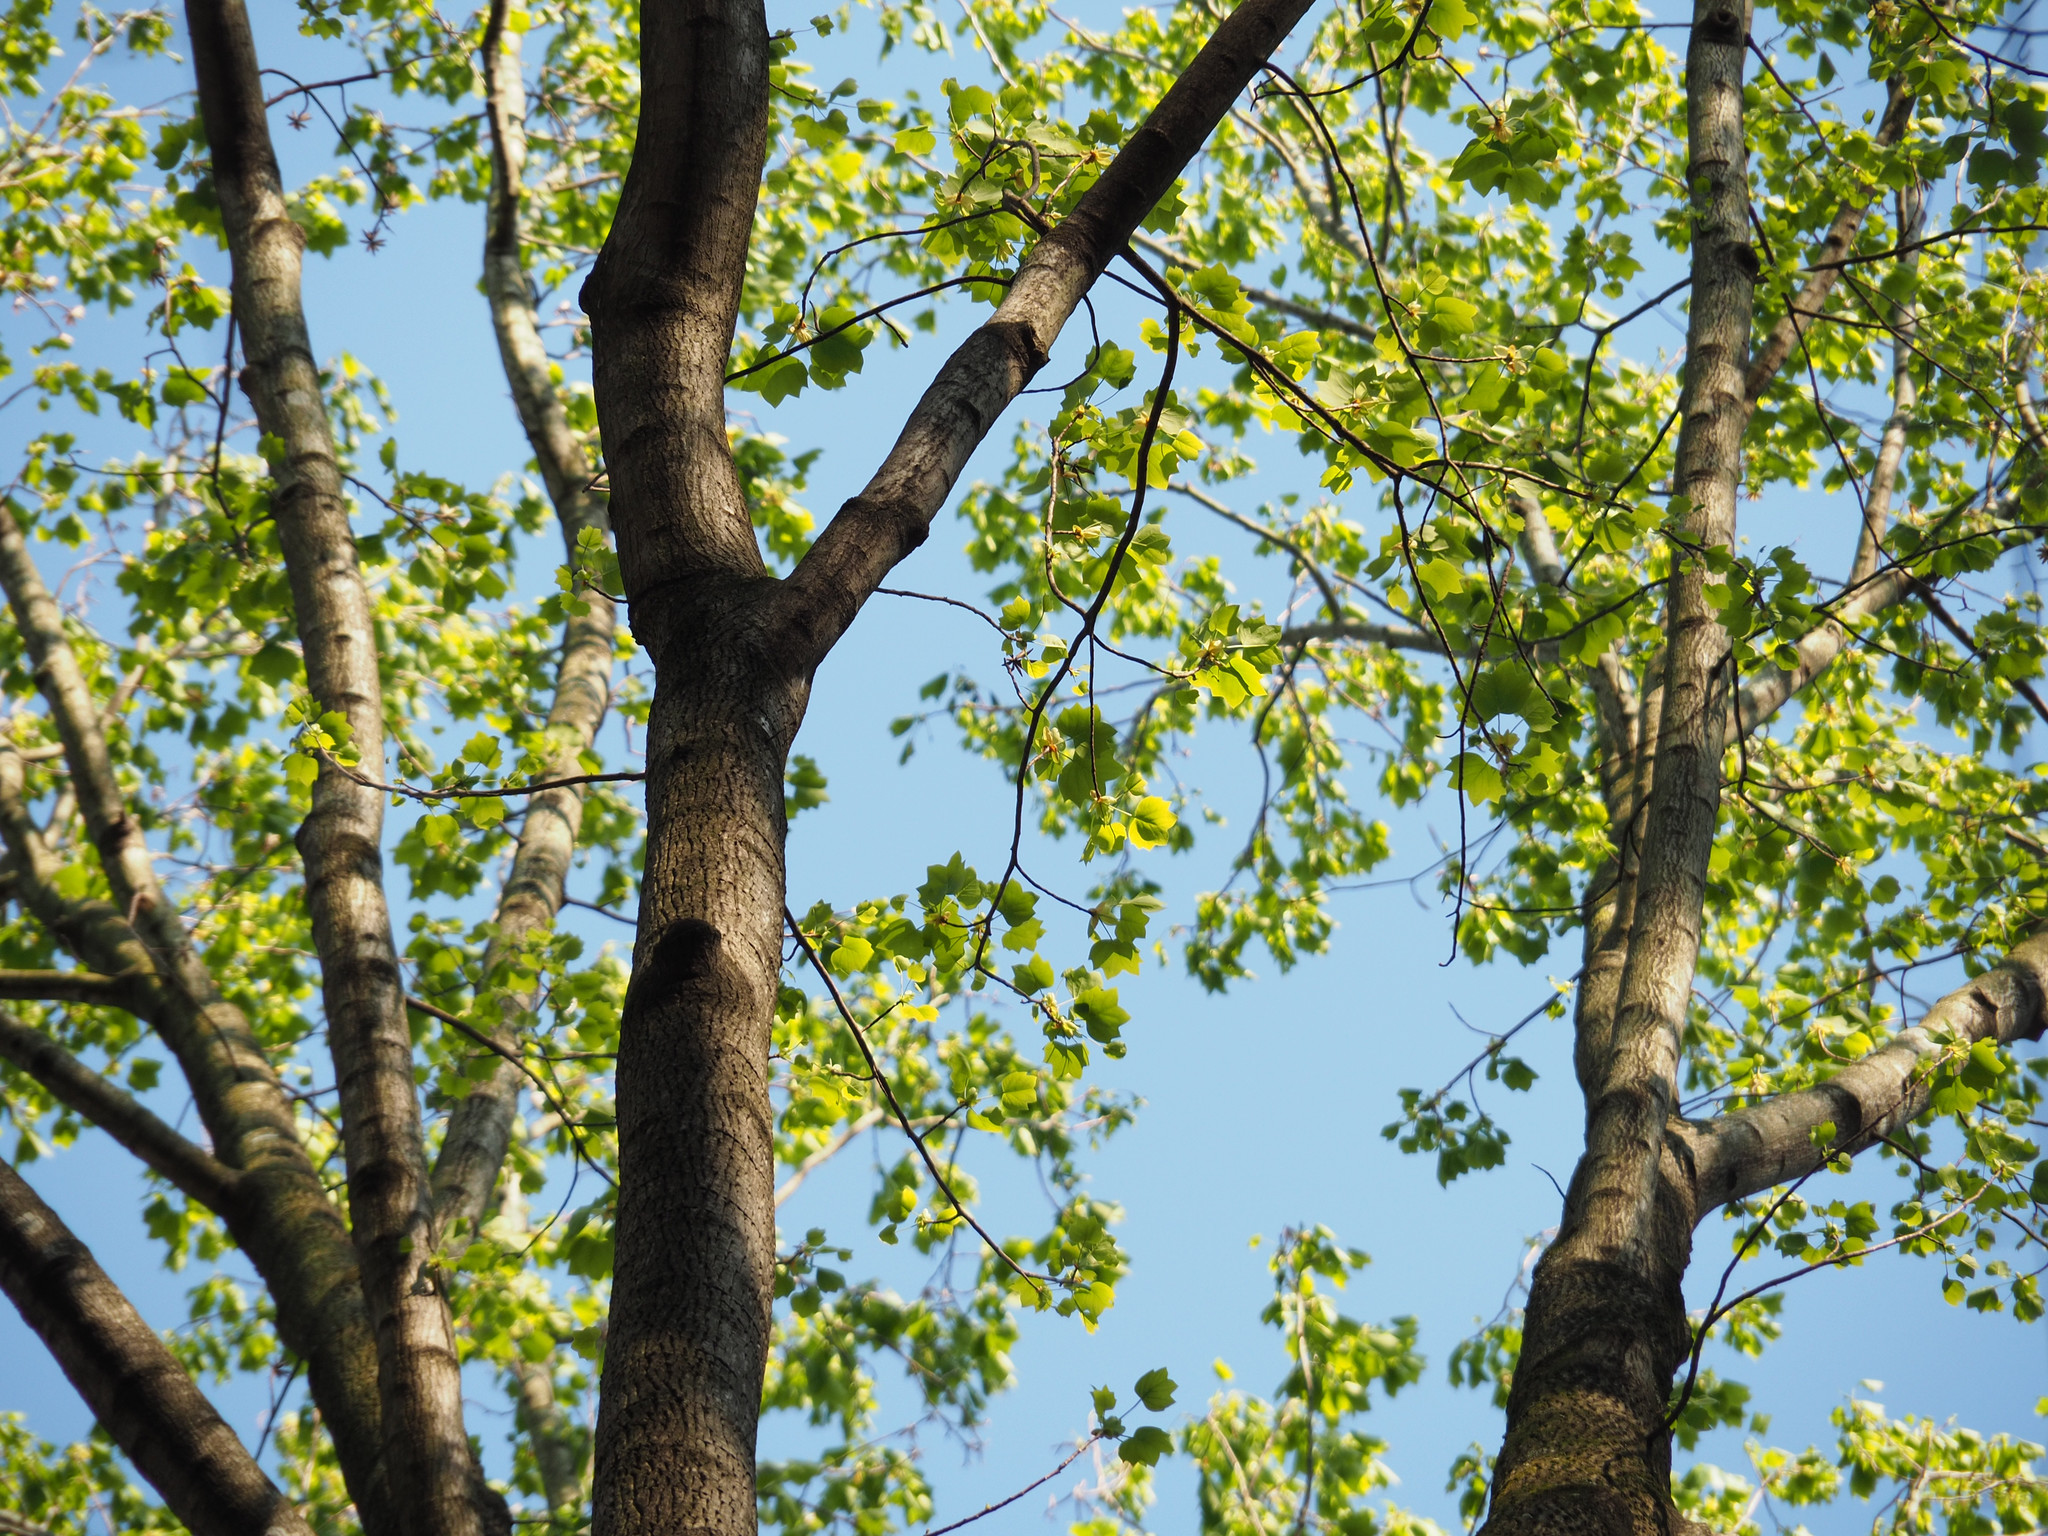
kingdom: Plantae
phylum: Tracheophyta
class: Magnoliopsida
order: Magnoliales
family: Magnoliaceae
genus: Liriodendron
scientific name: Liriodendron tulipifera
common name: Tulip tree
